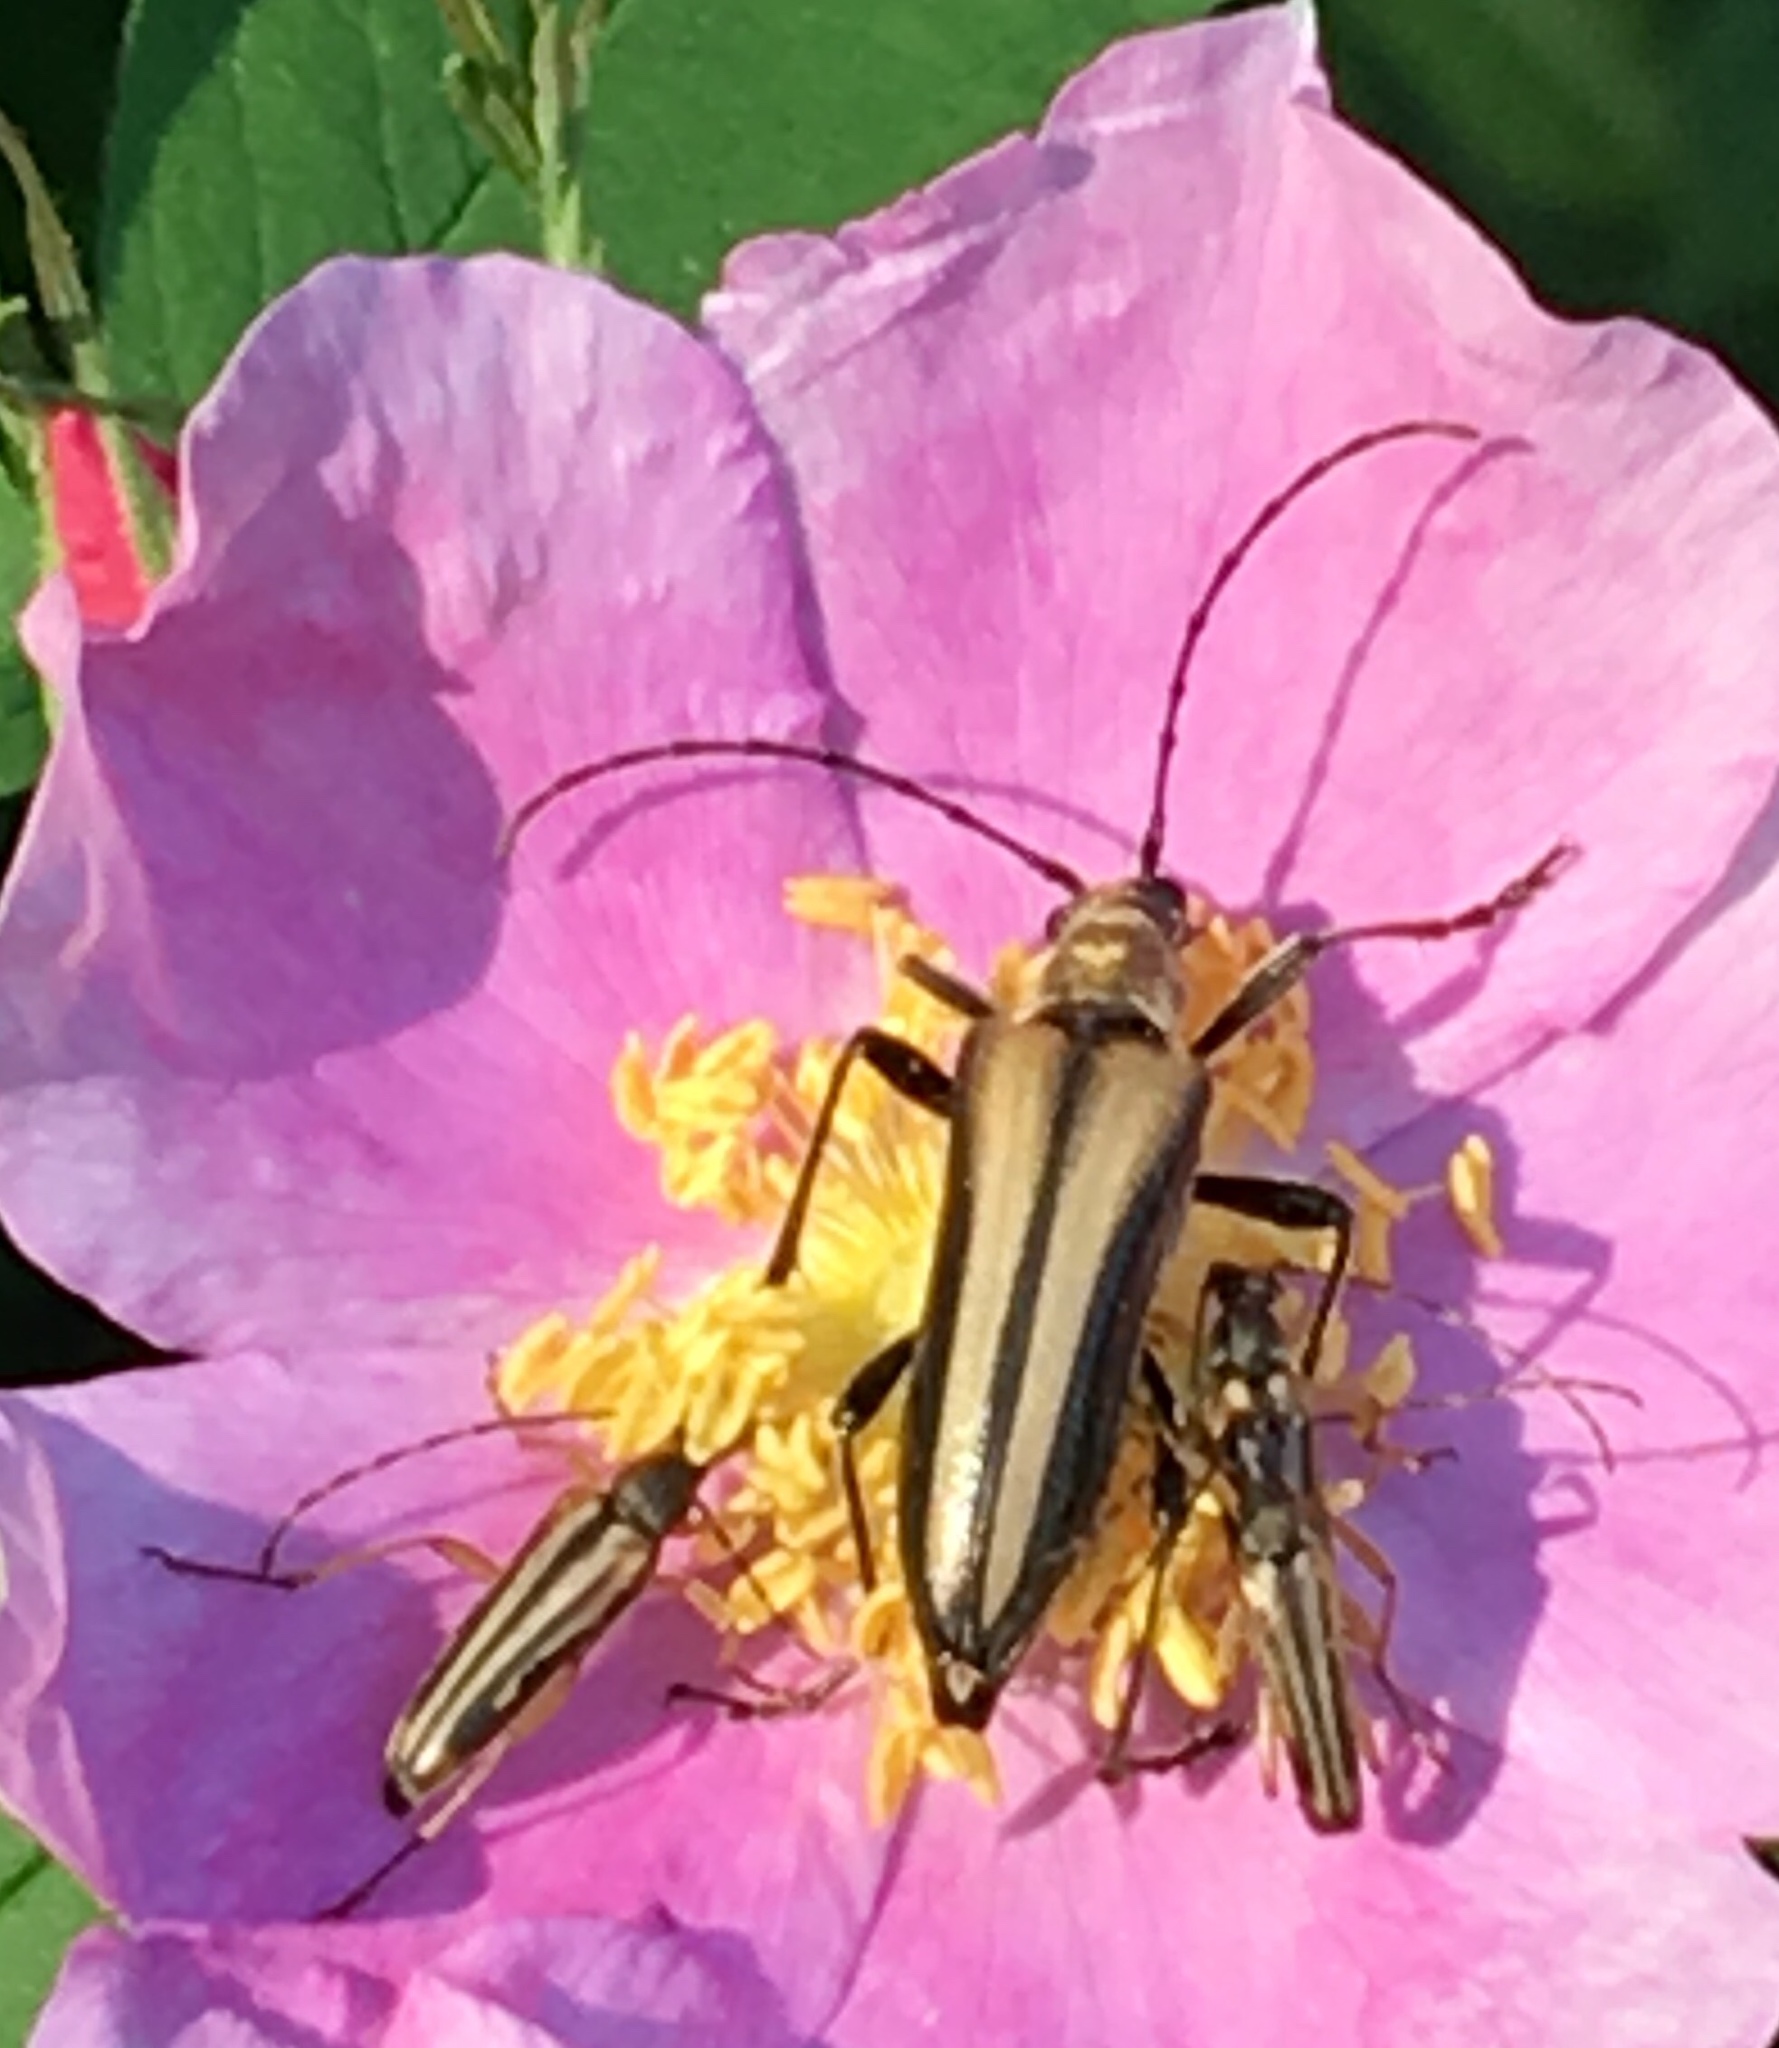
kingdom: Animalia
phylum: Arthropoda
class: Insecta
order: Coleoptera
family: Cerambycidae
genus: Stenocorus
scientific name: Stenocorus vittiger
